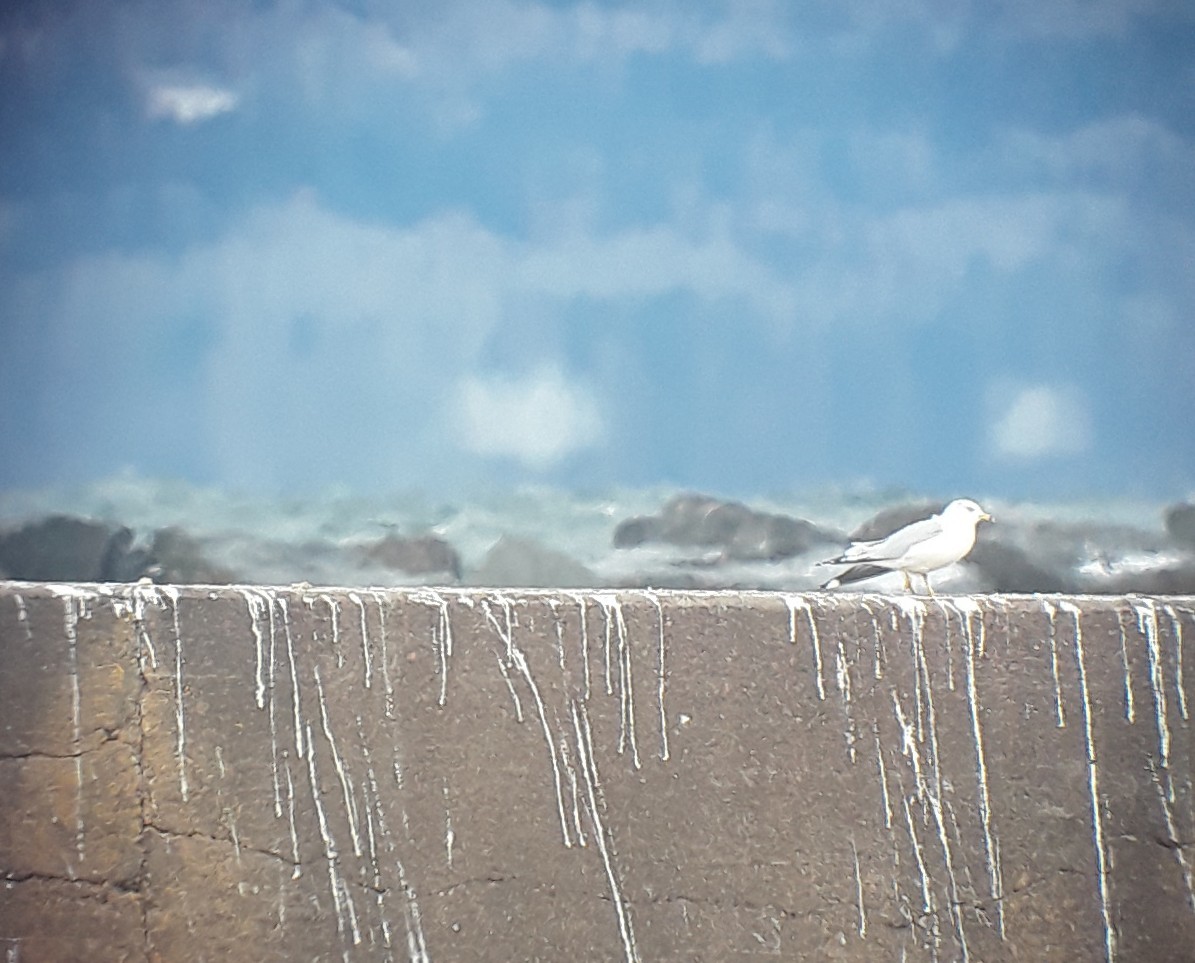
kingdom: Animalia
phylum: Chordata
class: Aves
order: Charadriiformes
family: Laridae
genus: Larus
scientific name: Larus delawarensis
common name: Ring-billed gull
